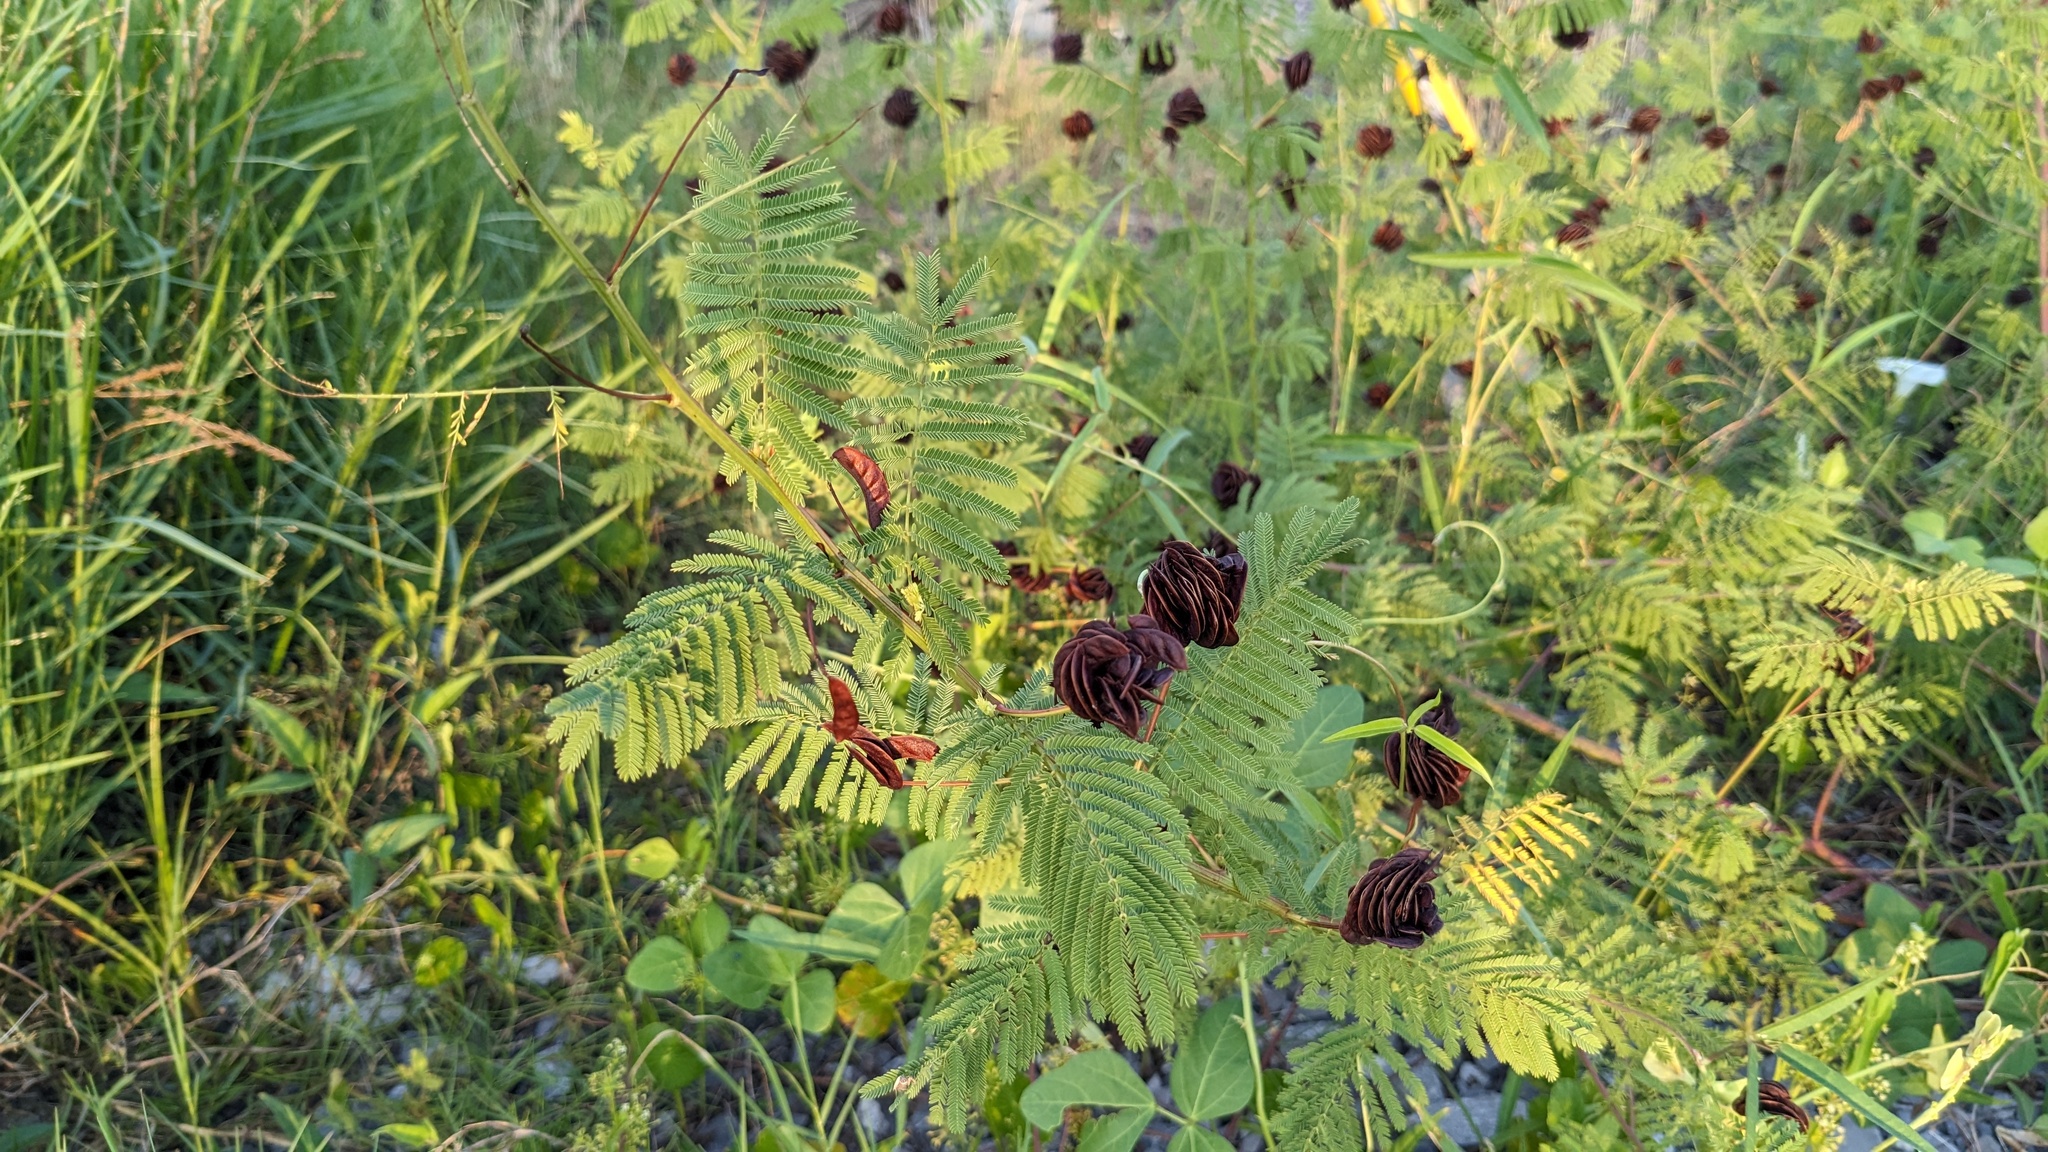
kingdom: Plantae
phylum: Tracheophyta
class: Magnoliopsida
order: Fabales
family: Fabaceae
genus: Desmanthus
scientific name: Desmanthus illinoensis
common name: Illinois bundle-flower
